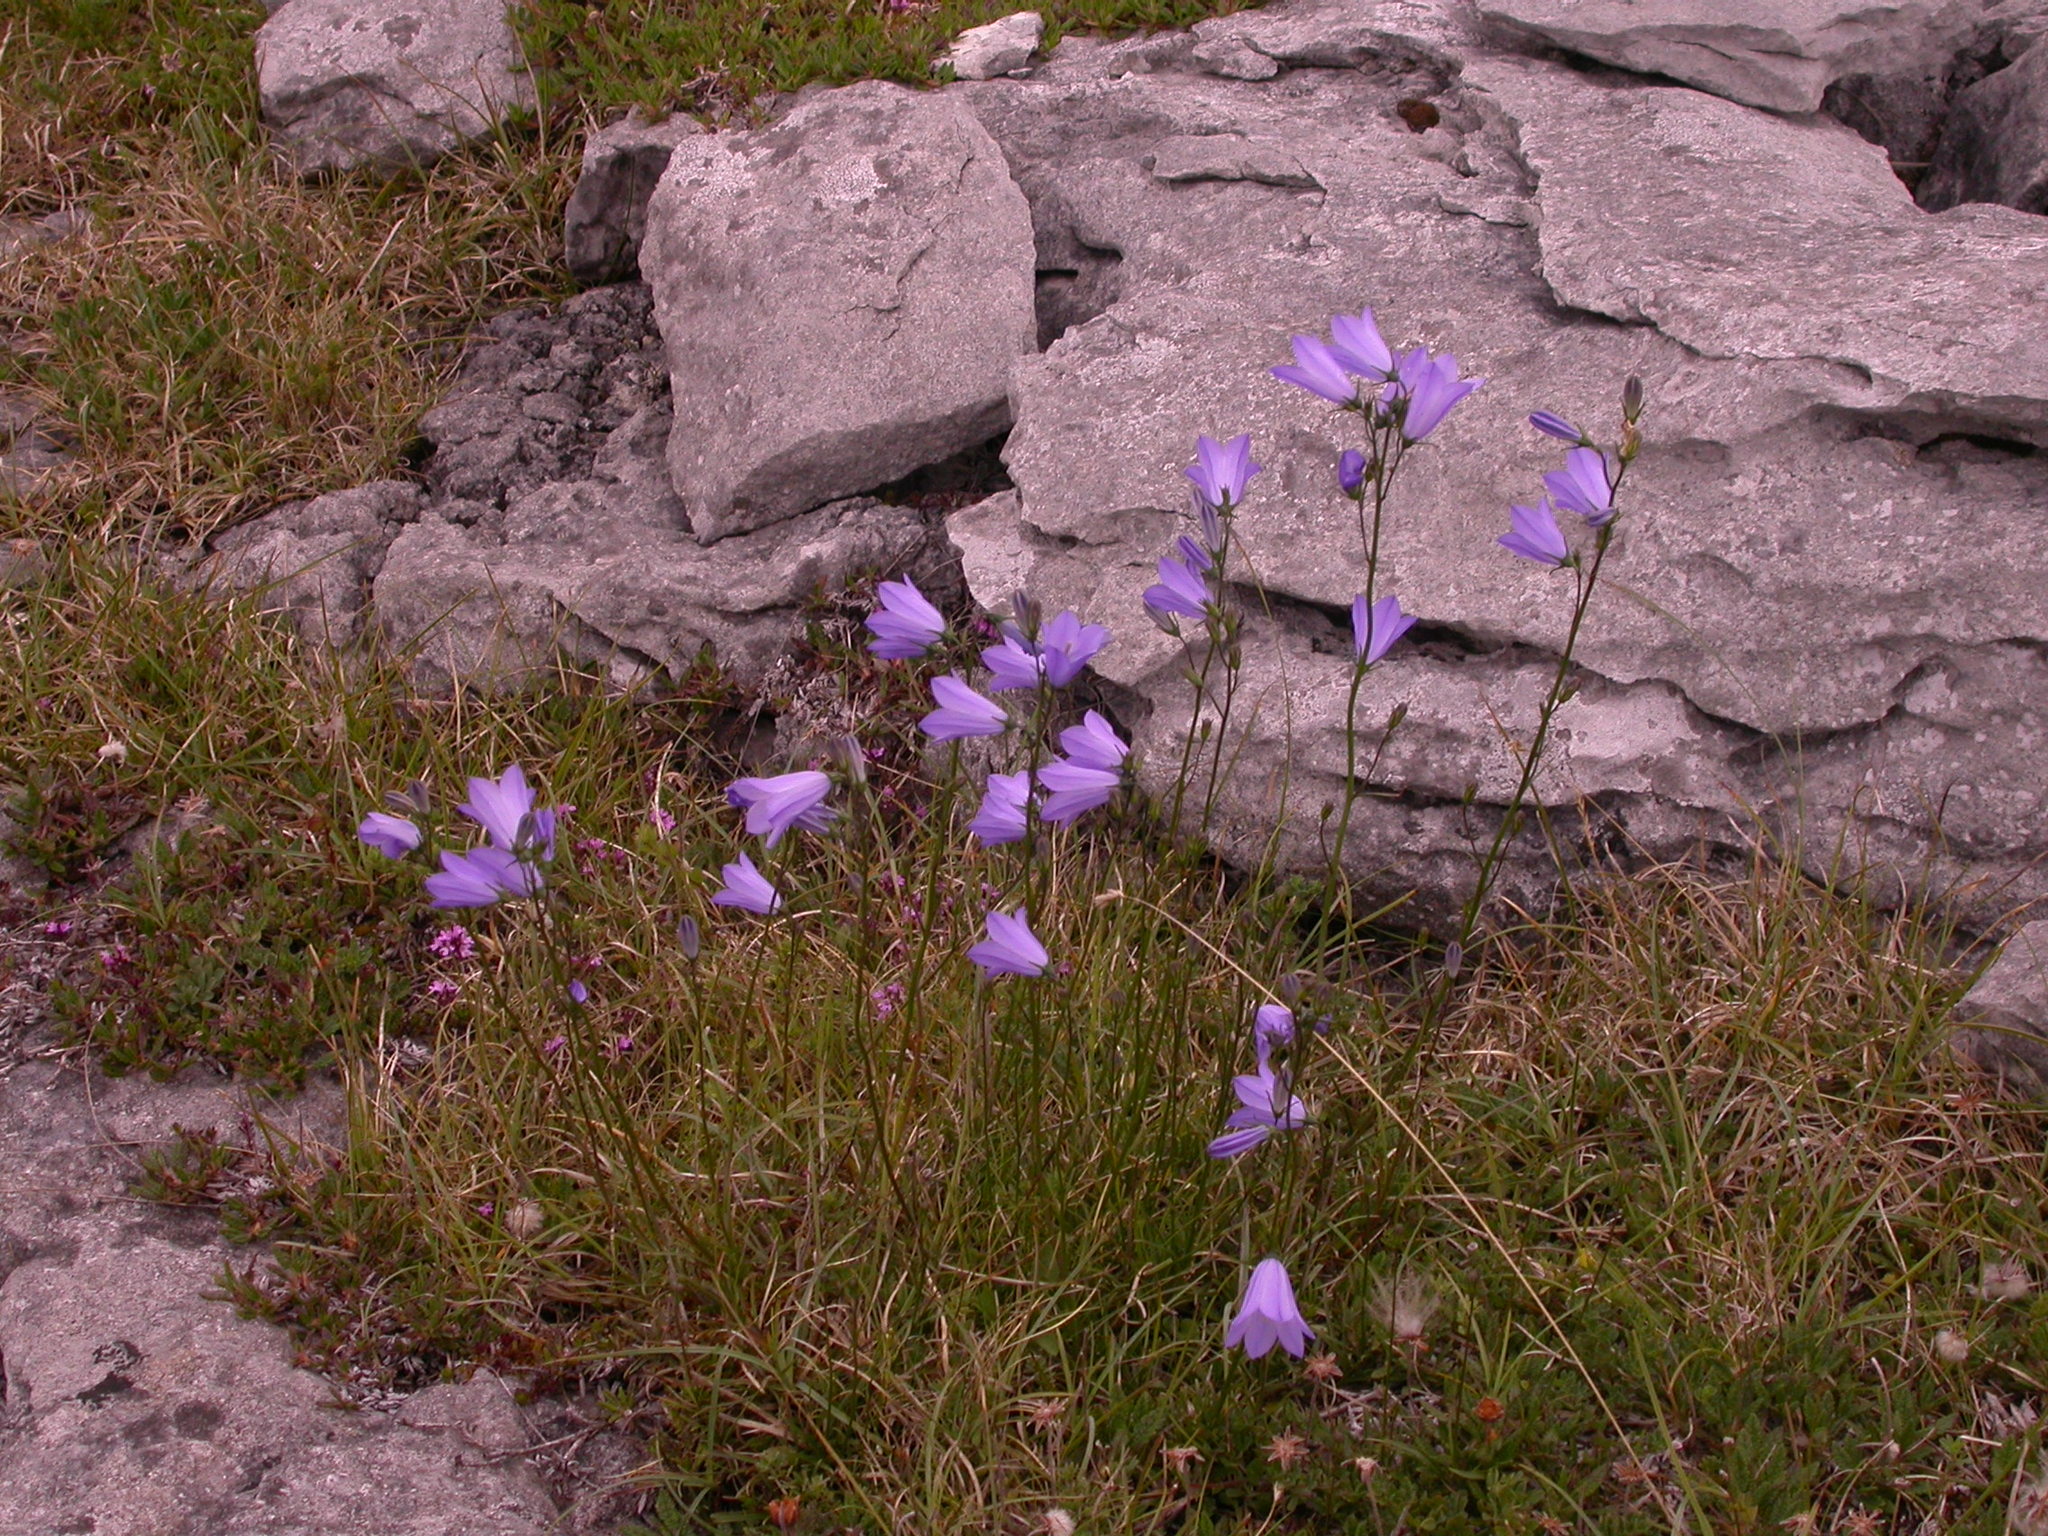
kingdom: Plantae
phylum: Tracheophyta
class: Magnoliopsida
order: Asterales
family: Campanulaceae
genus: Campanula
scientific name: Campanula rotundifolia
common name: Harebell
